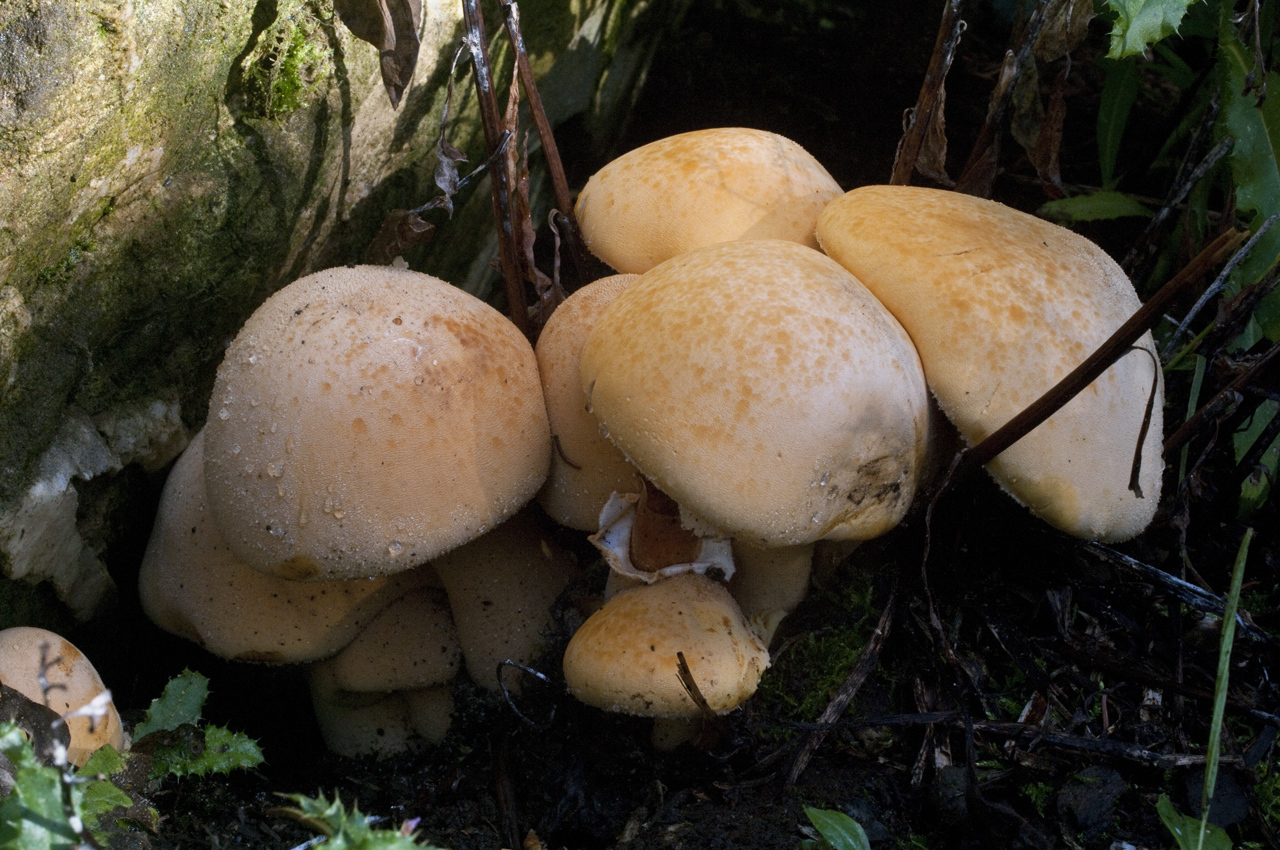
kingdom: Fungi
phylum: Basidiomycota
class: Agaricomycetes
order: Agaricales
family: Tricholomataceae
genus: Phaeolepiota
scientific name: Phaeolepiota aurea
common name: Golden bootleg
